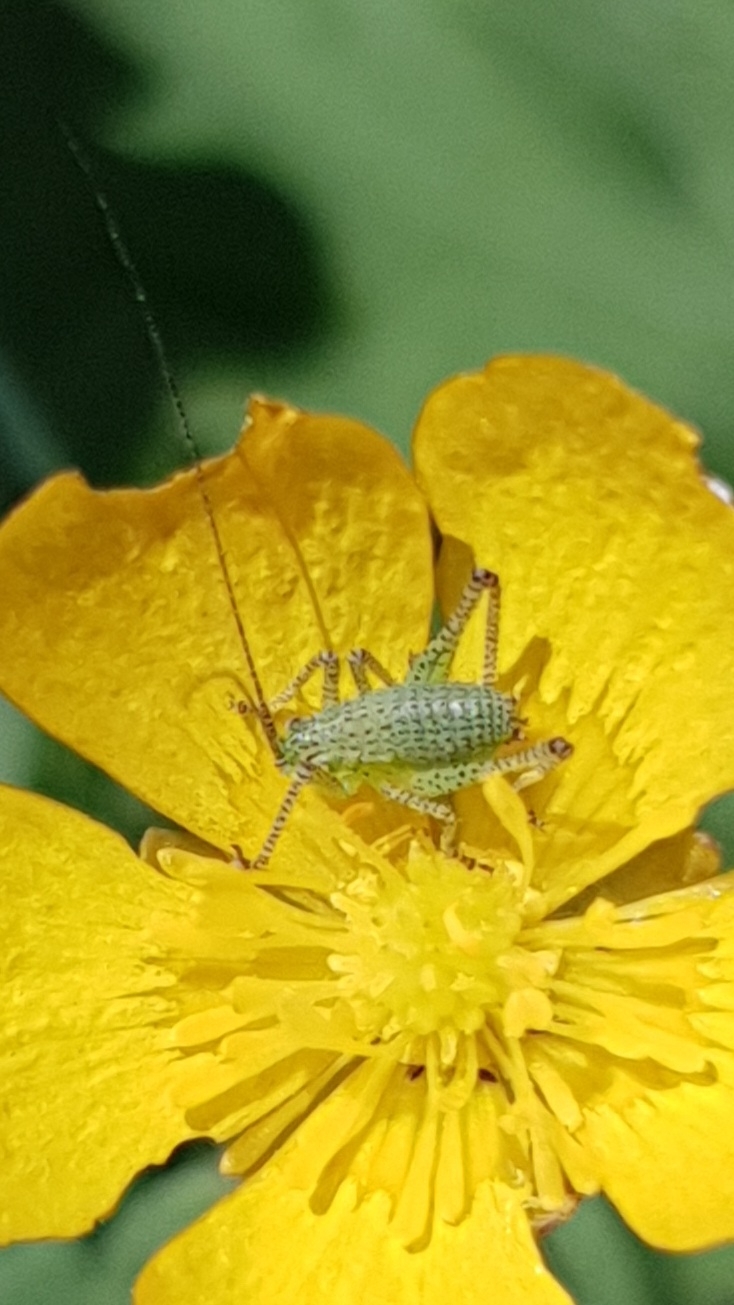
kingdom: Animalia
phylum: Arthropoda
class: Insecta
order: Orthoptera
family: Tettigoniidae
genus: Leptophyes
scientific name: Leptophyes punctatissima
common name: Speckled bush-cricket
